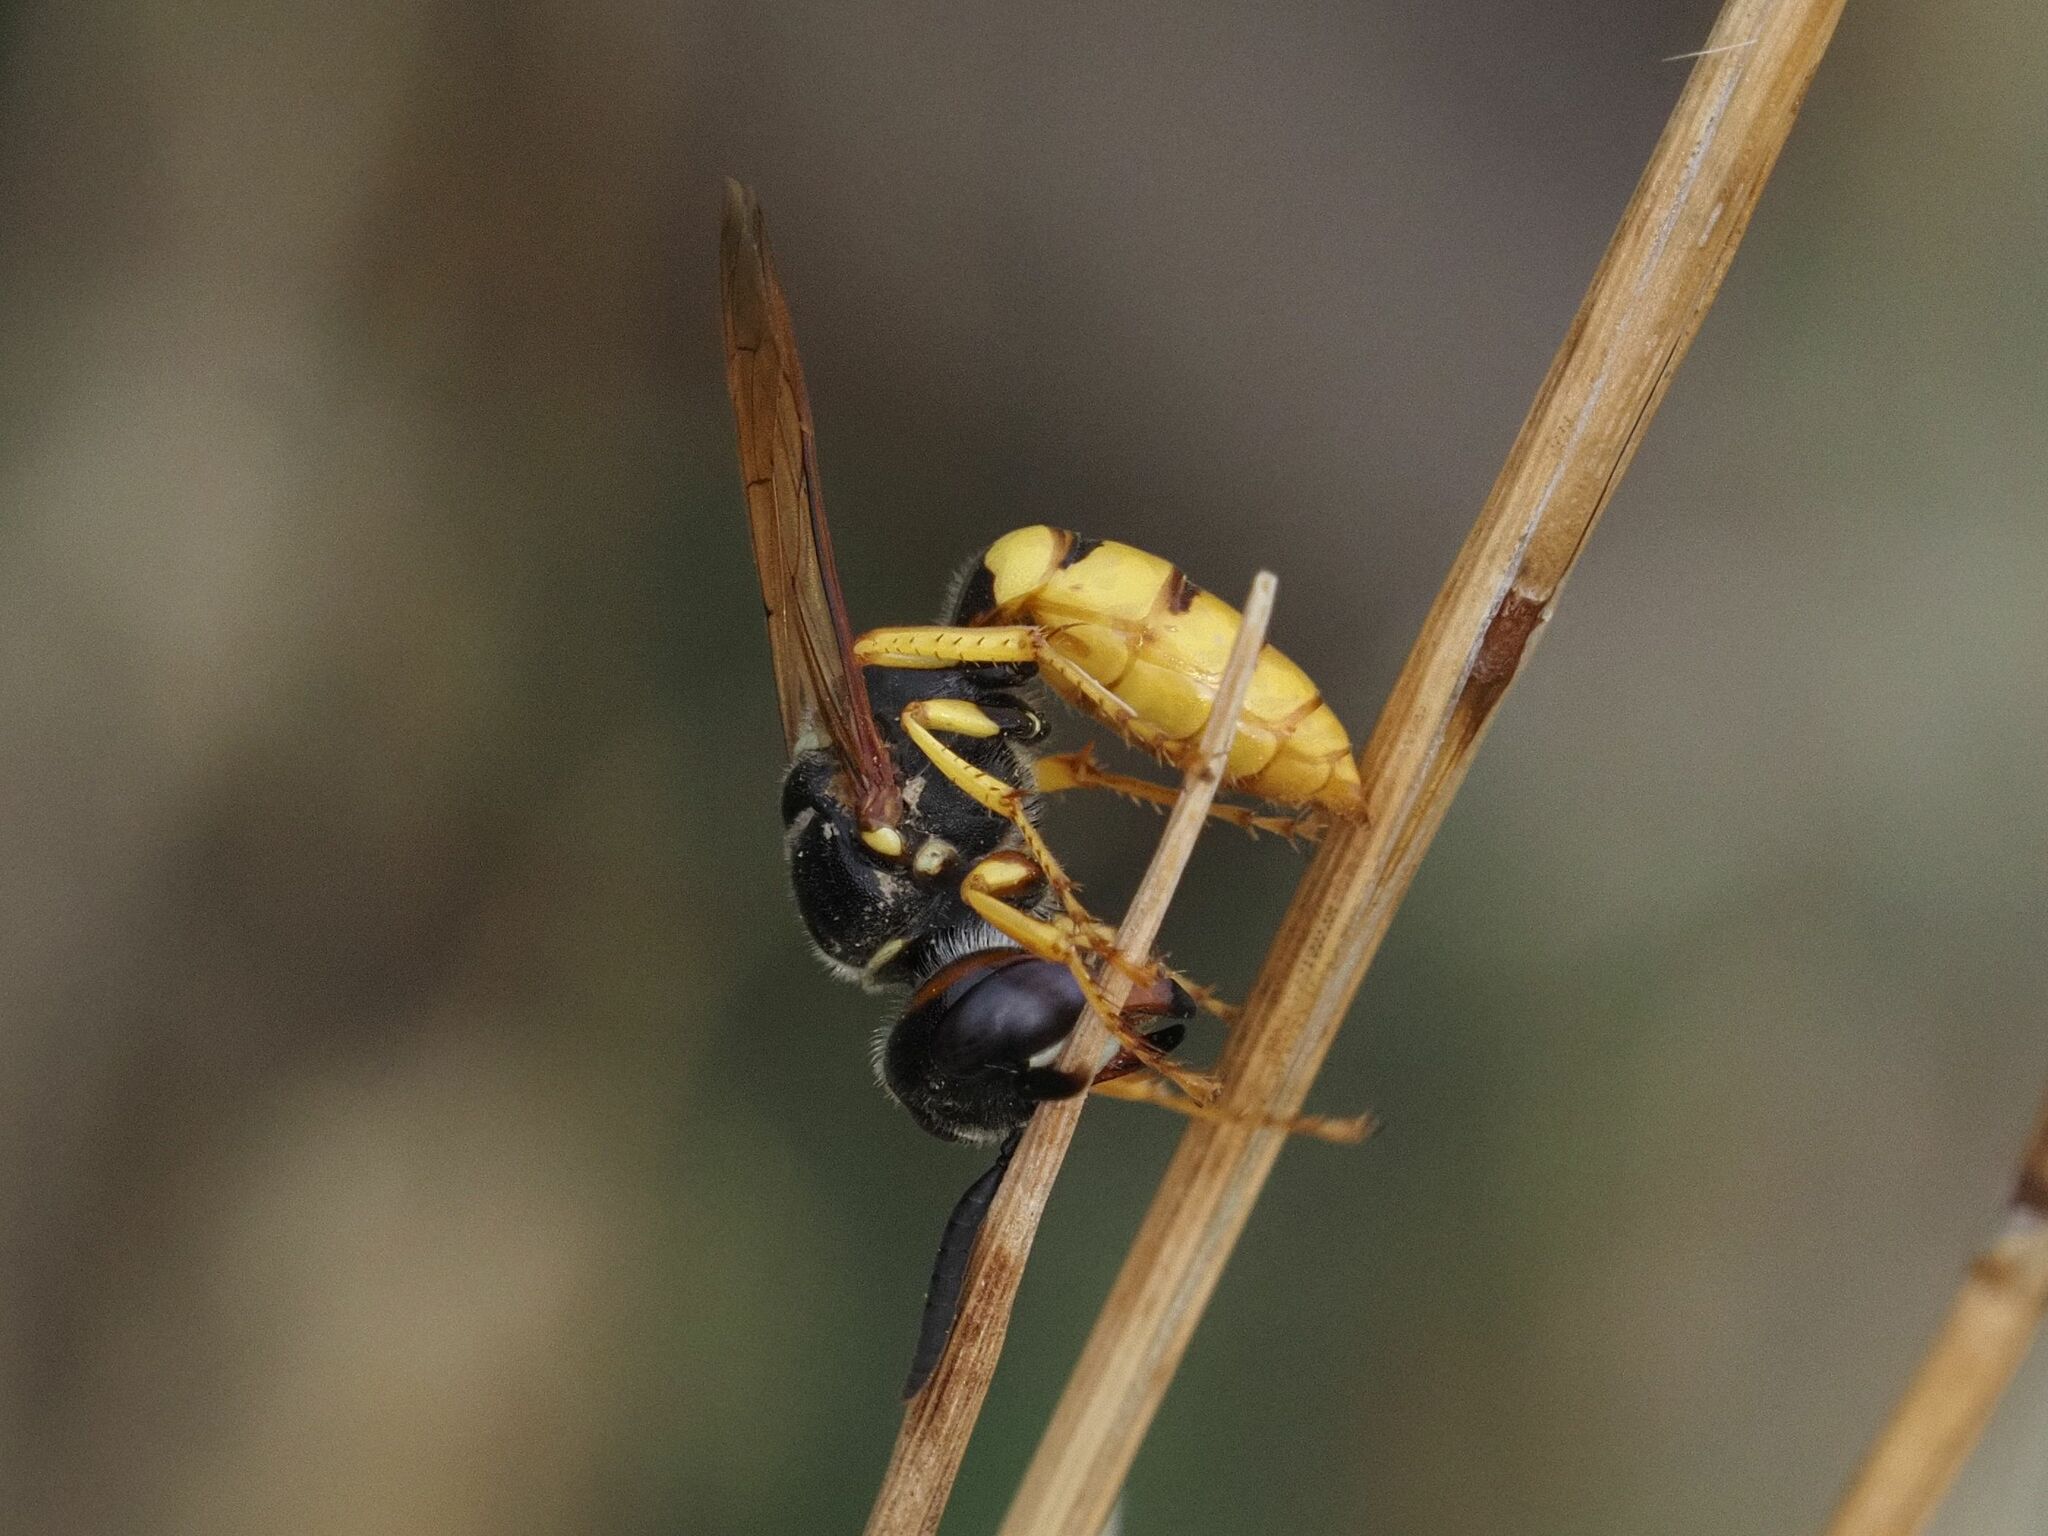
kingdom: Animalia
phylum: Arthropoda
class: Insecta
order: Hymenoptera
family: Crabronidae
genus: Philanthus
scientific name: Philanthus triangulum
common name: Bee wolf
